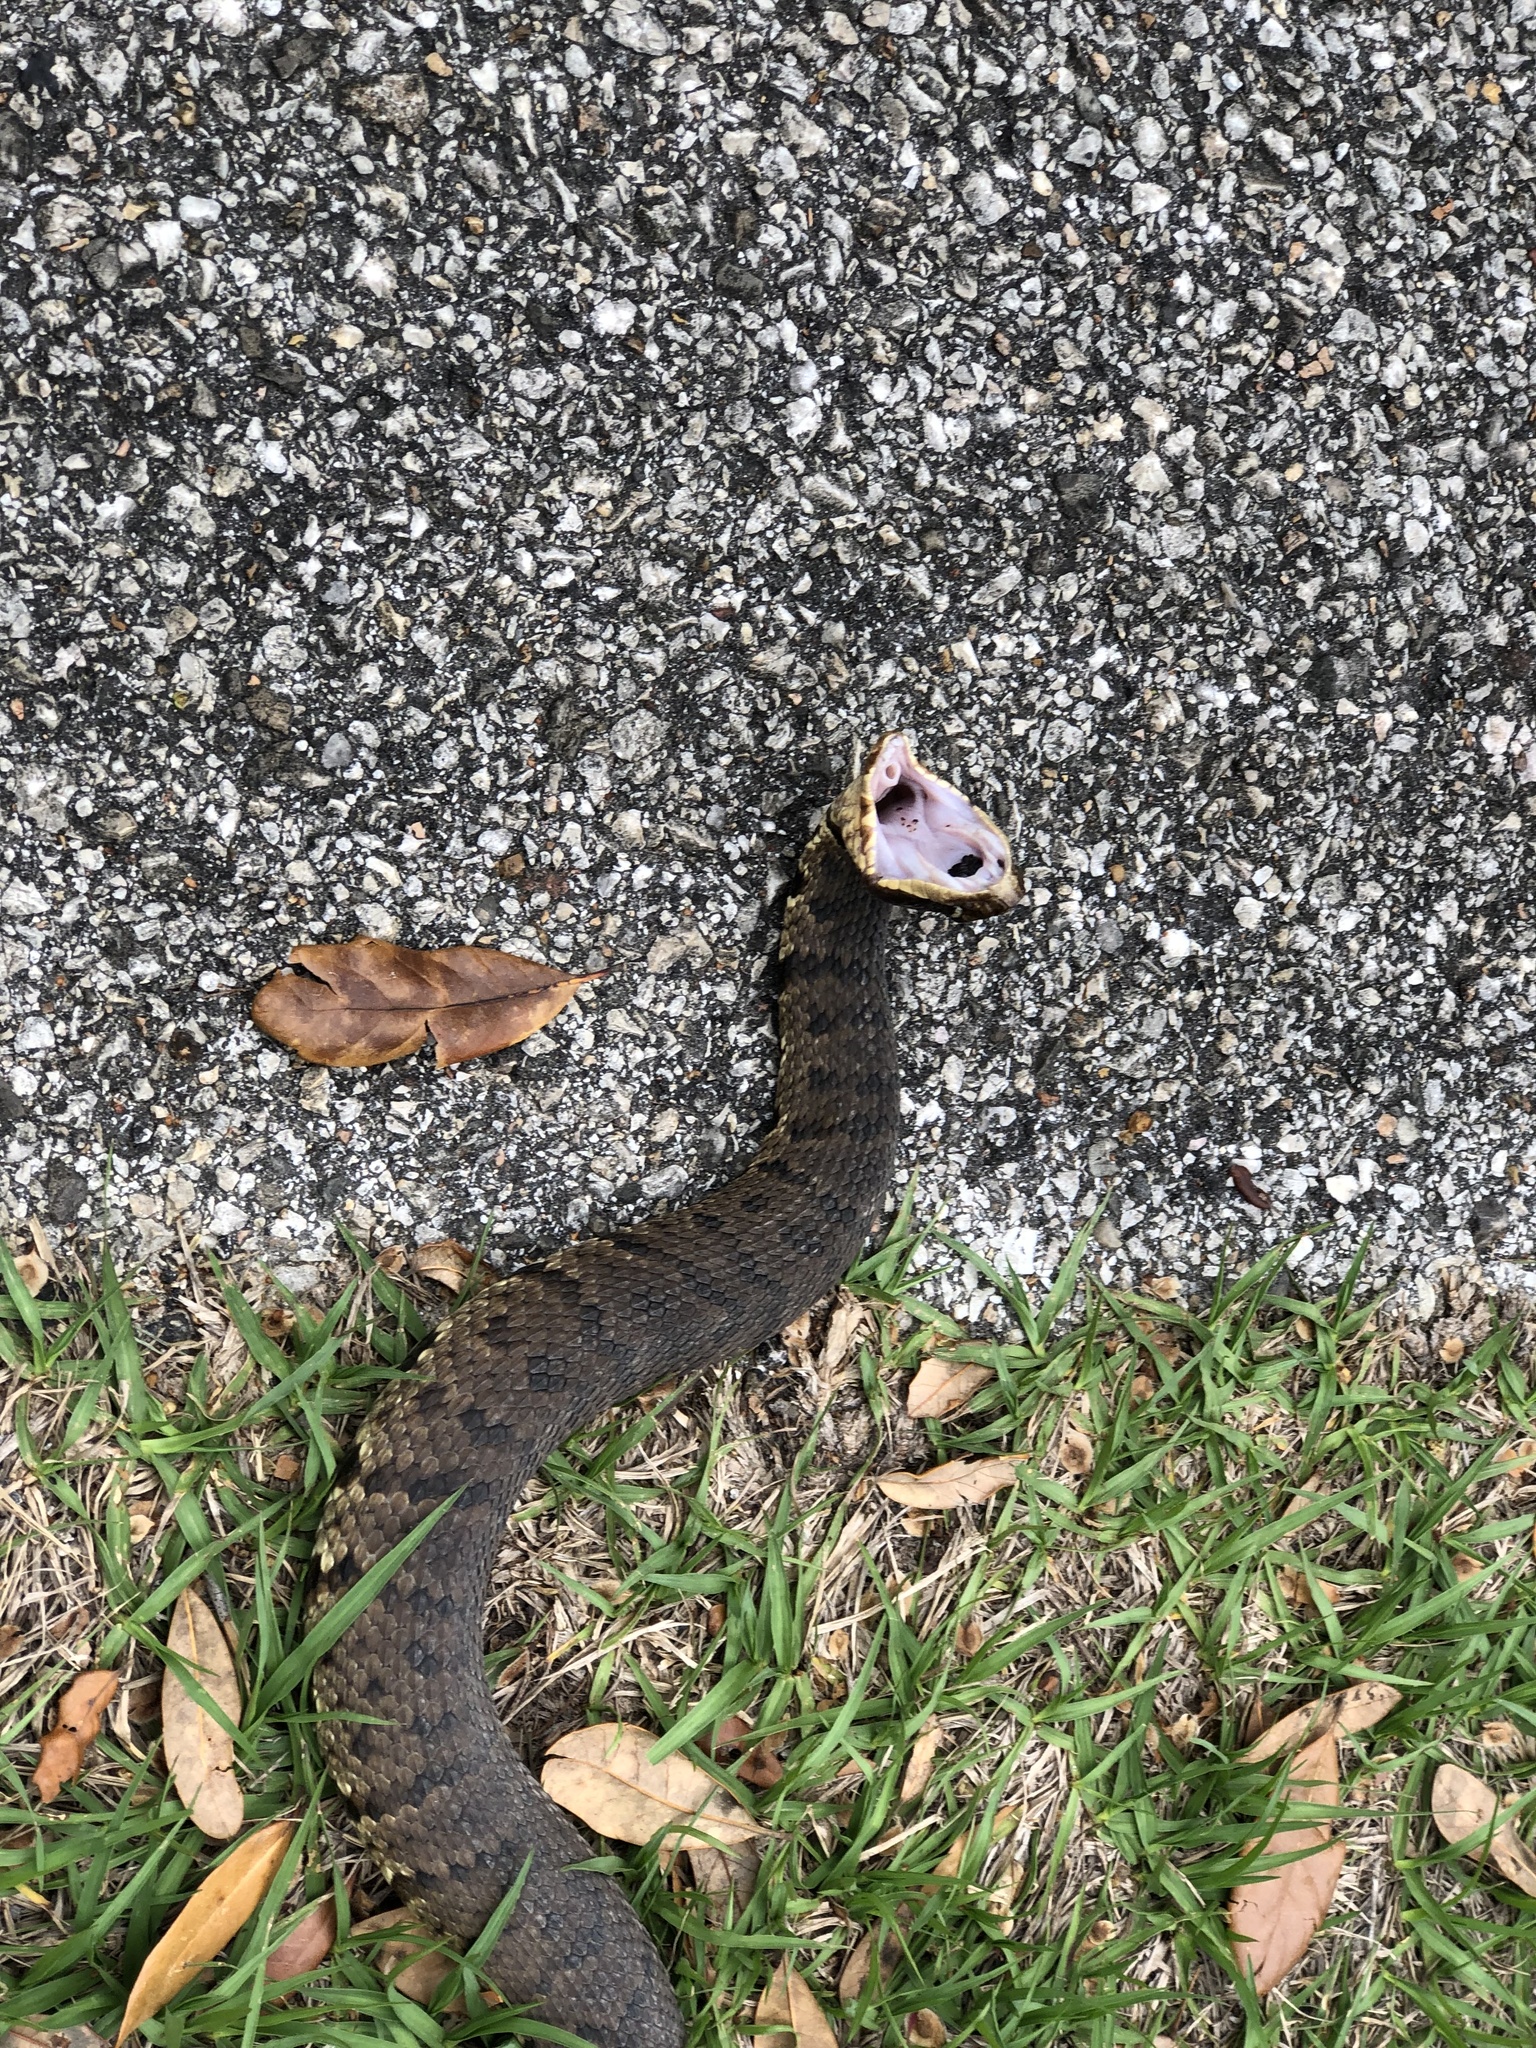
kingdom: Animalia
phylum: Chordata
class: Squamata
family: Viperidae
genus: Agkistrodon
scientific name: Agkistrodon piscivorus
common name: Cottonmouth
